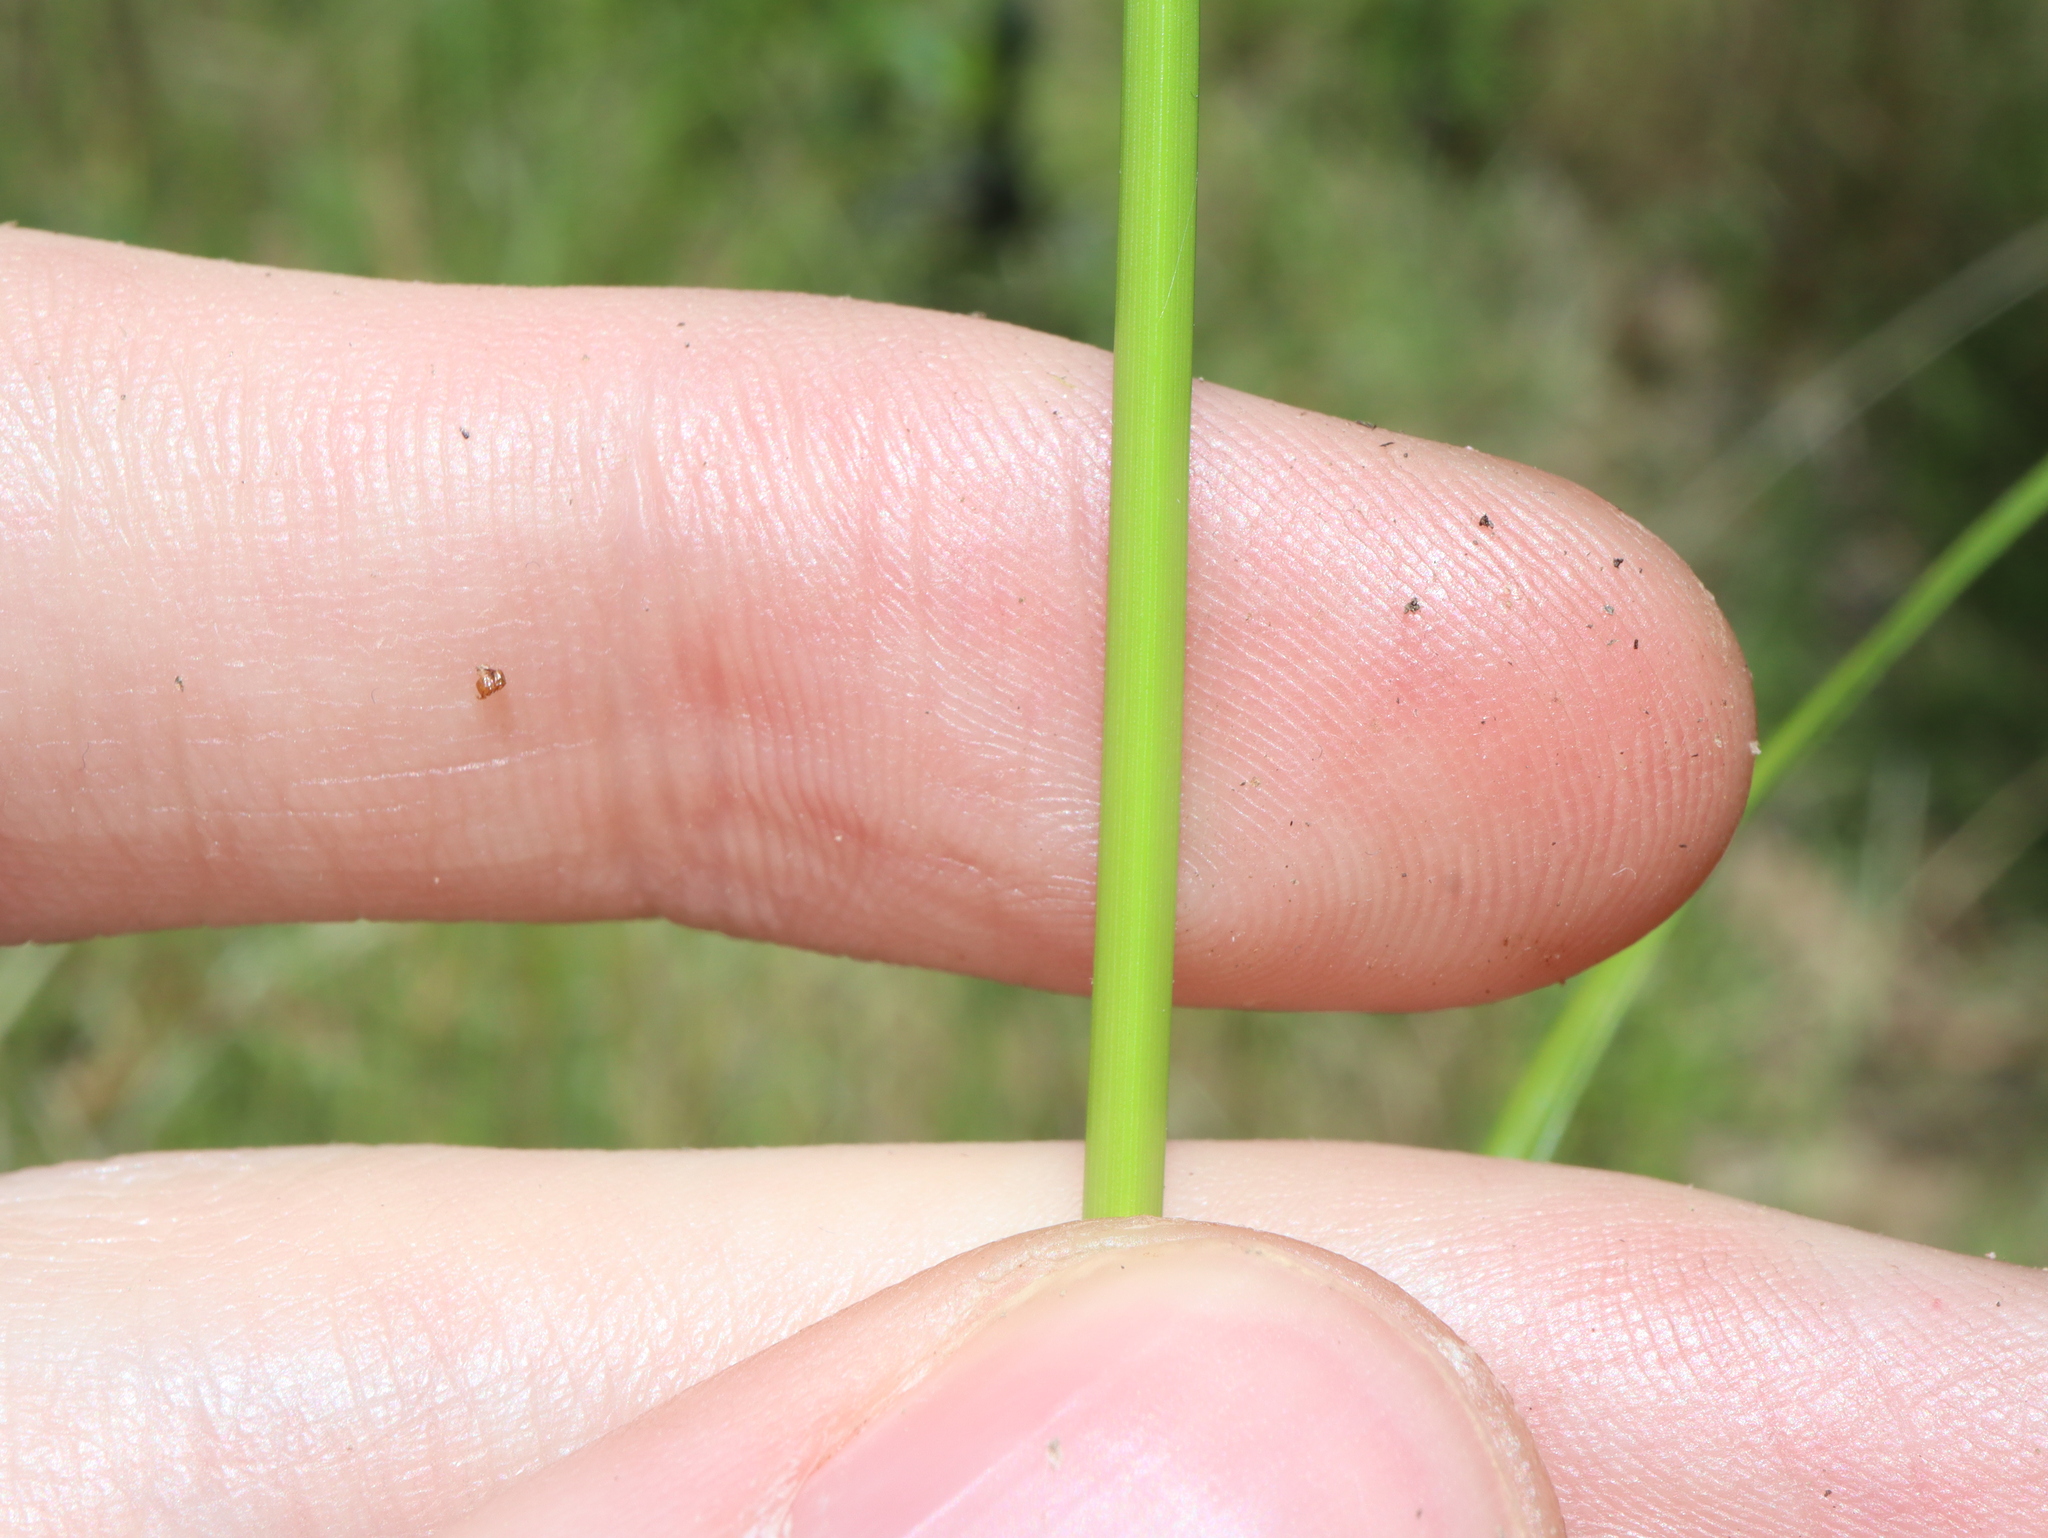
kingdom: Plantae
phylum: Tracheophyta
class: Liliopsida
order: Poales
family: Cyperaceae
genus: Cyperus
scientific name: Cyperus eragrostis
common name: Tall flatsedge
